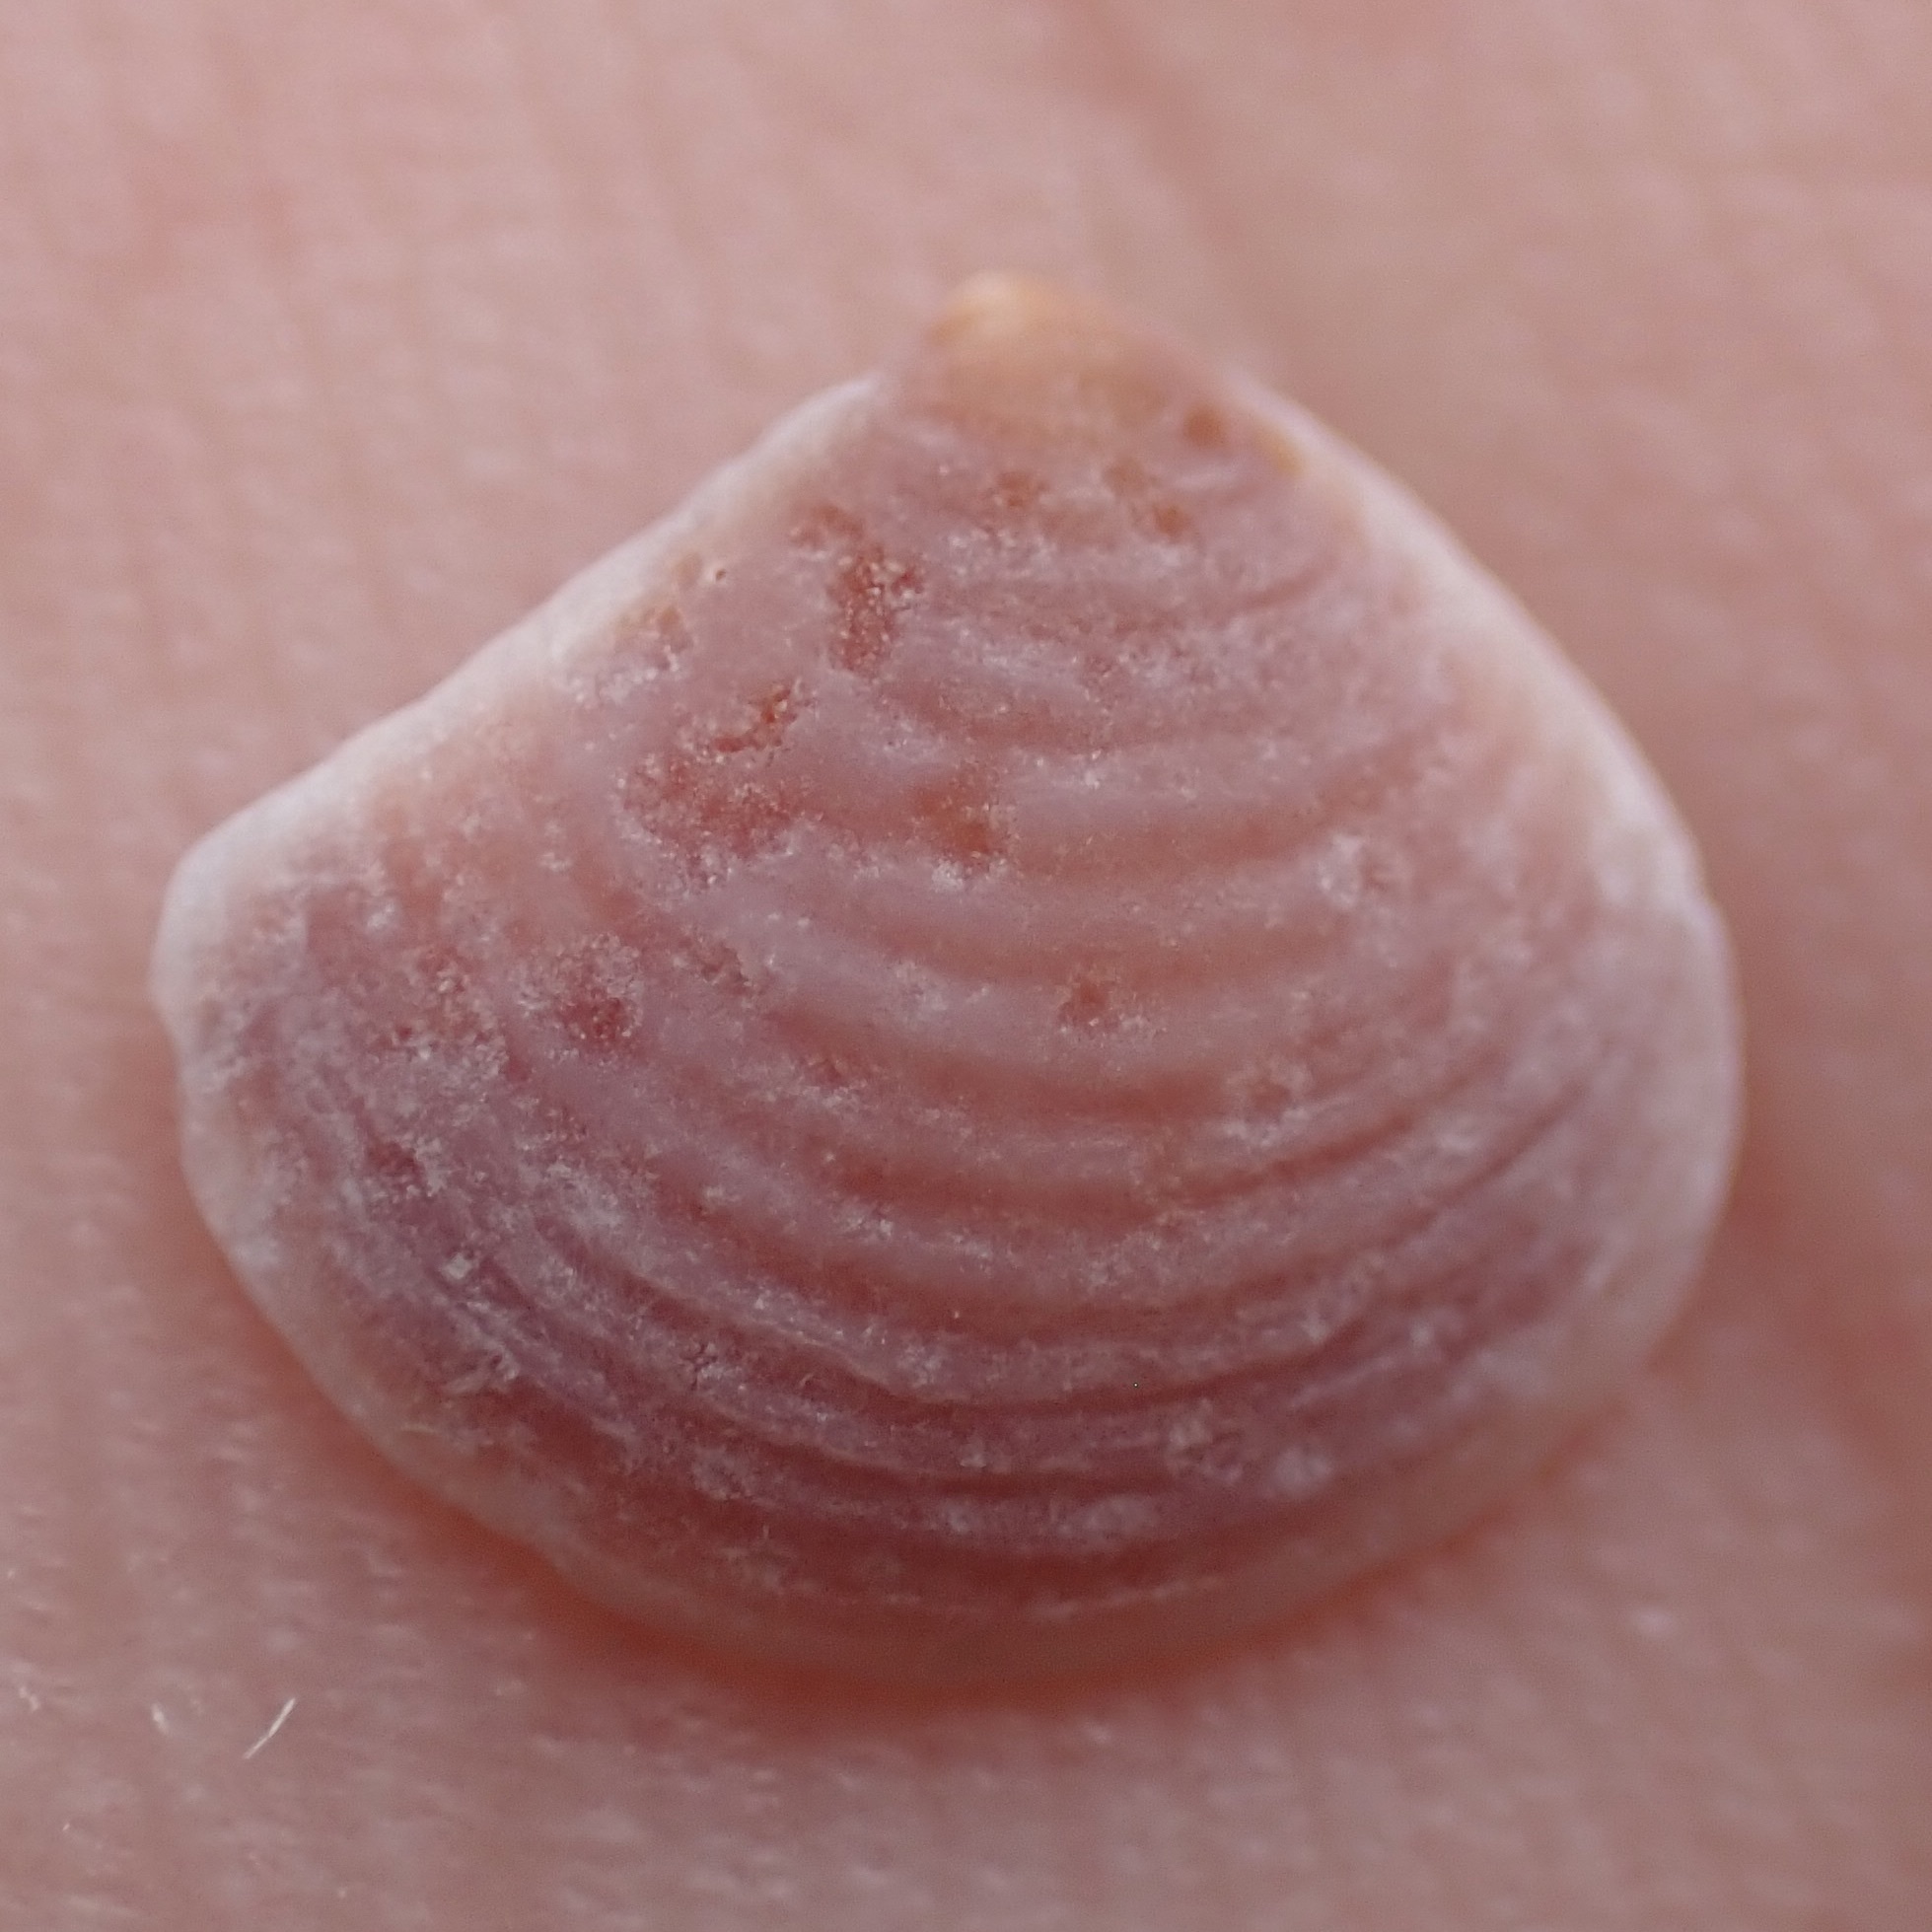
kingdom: Animalia
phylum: Mollusca
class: Bivalvia
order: Carditida
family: Crassatellidae
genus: Crassinella
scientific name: Crassinella lunulata
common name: Lunate crassinella
